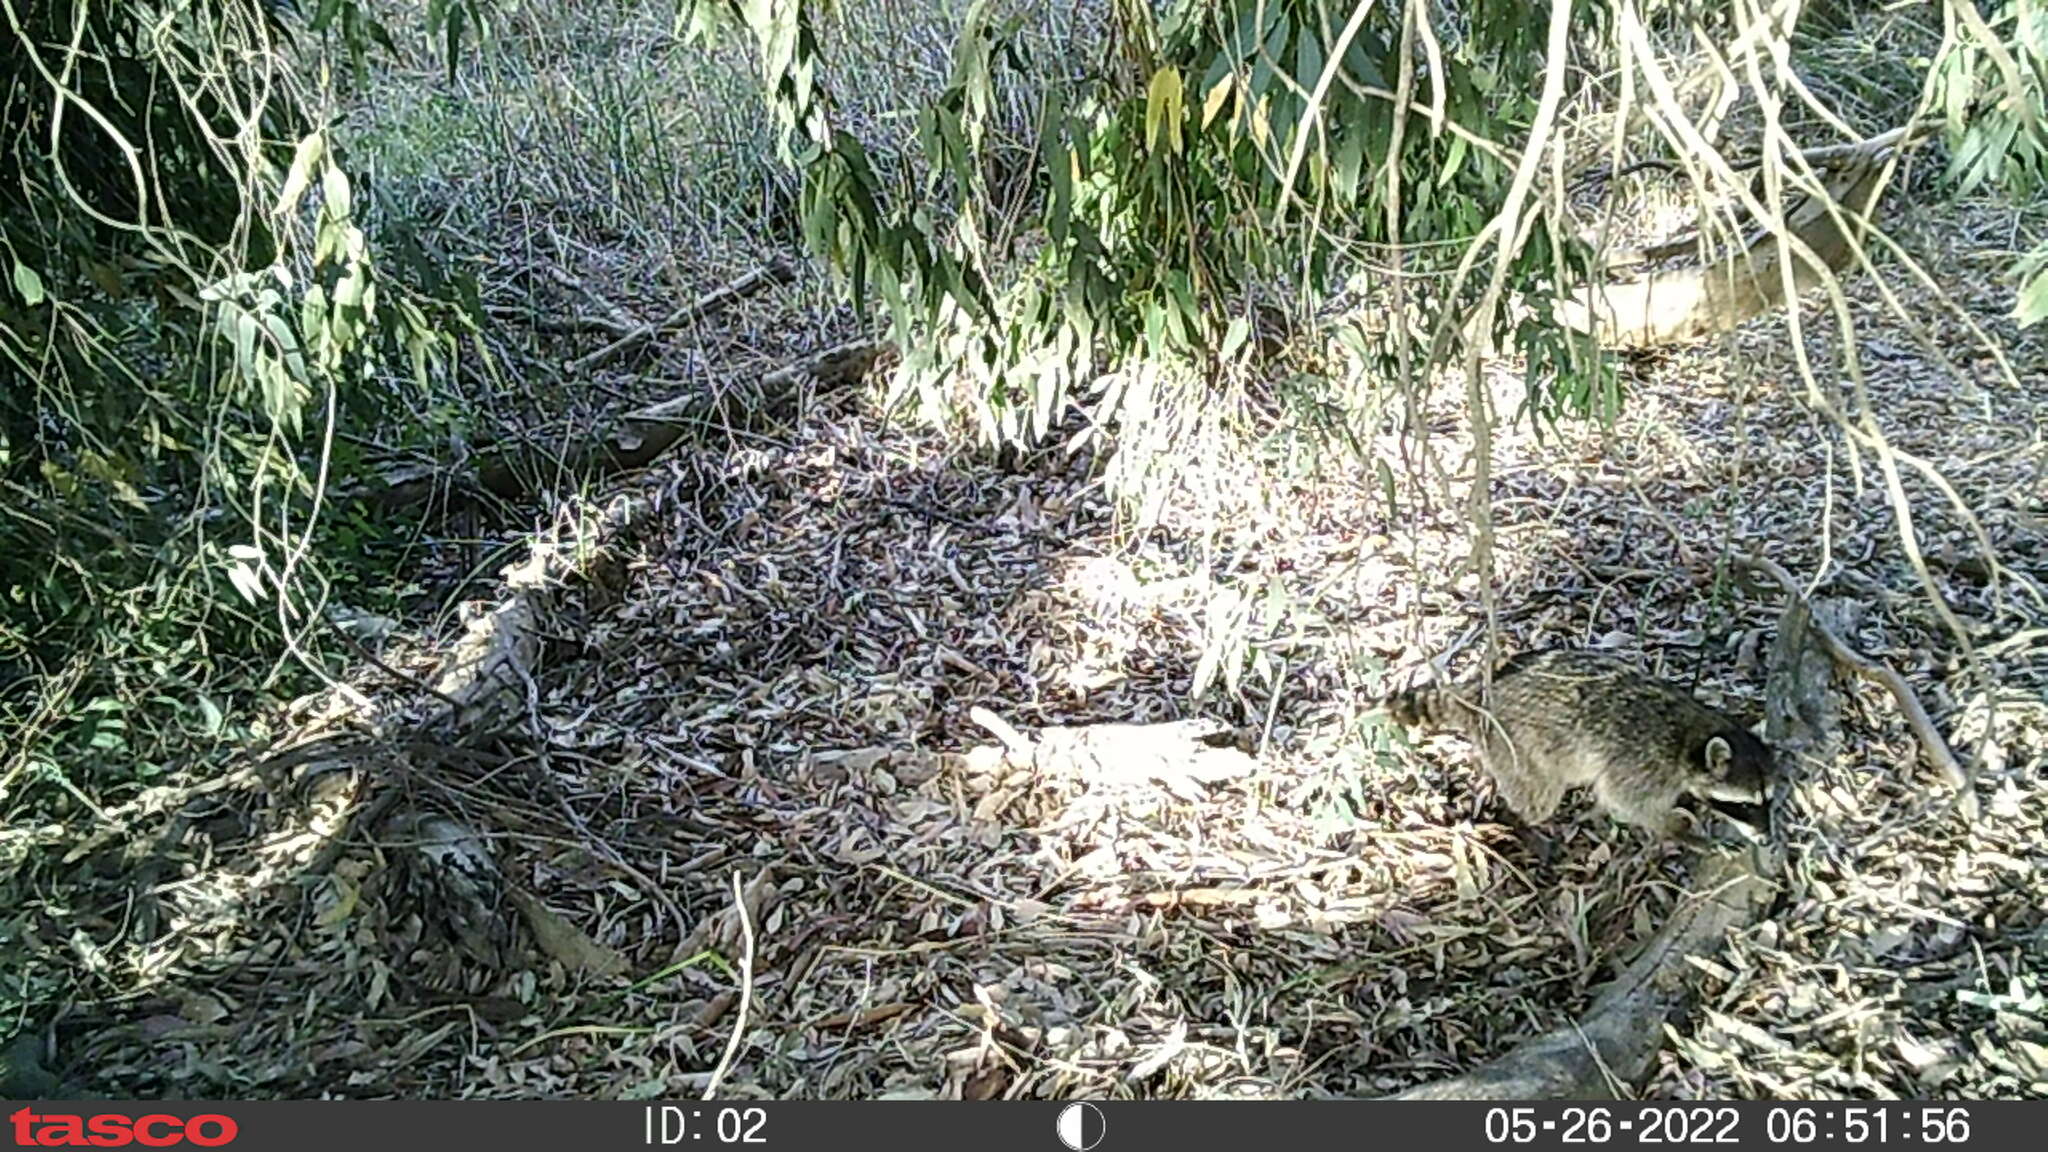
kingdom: Animalia
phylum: Chordata
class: Mammalia
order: Carnivora
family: Procyonidae
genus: Procyon
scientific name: Procyon lotor
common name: Raccoon
